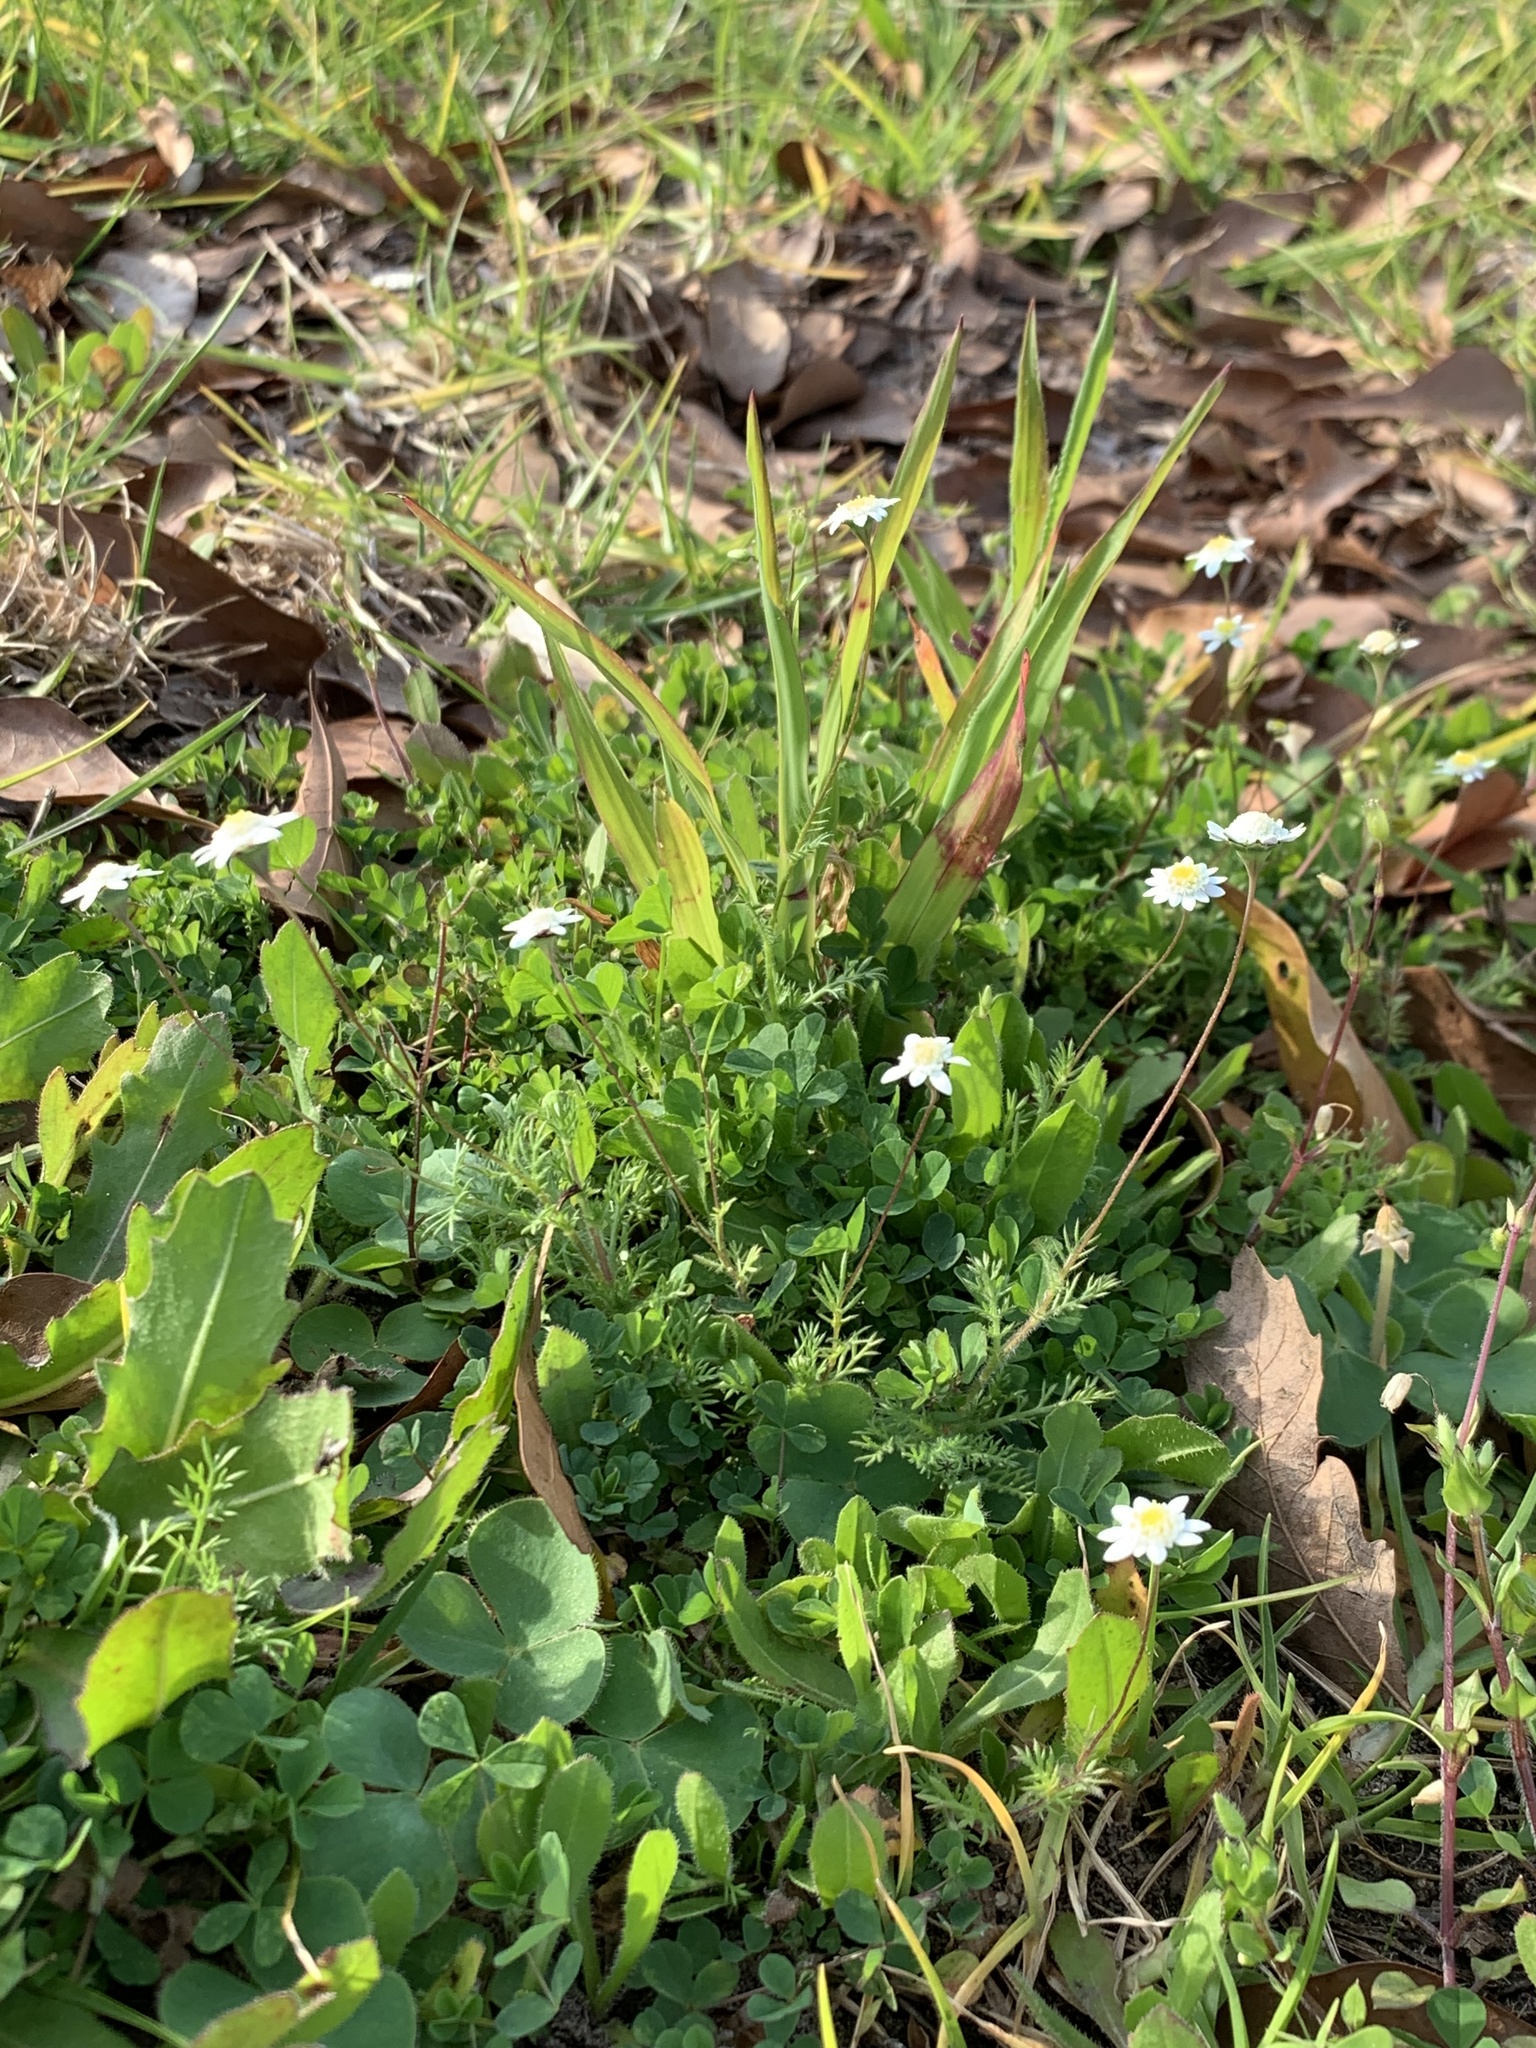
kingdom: Plantae
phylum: Tracheophyta
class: Magnoliopsida
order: Asterales
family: Asteraceae
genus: Cotula
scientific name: Cotula turbinata
